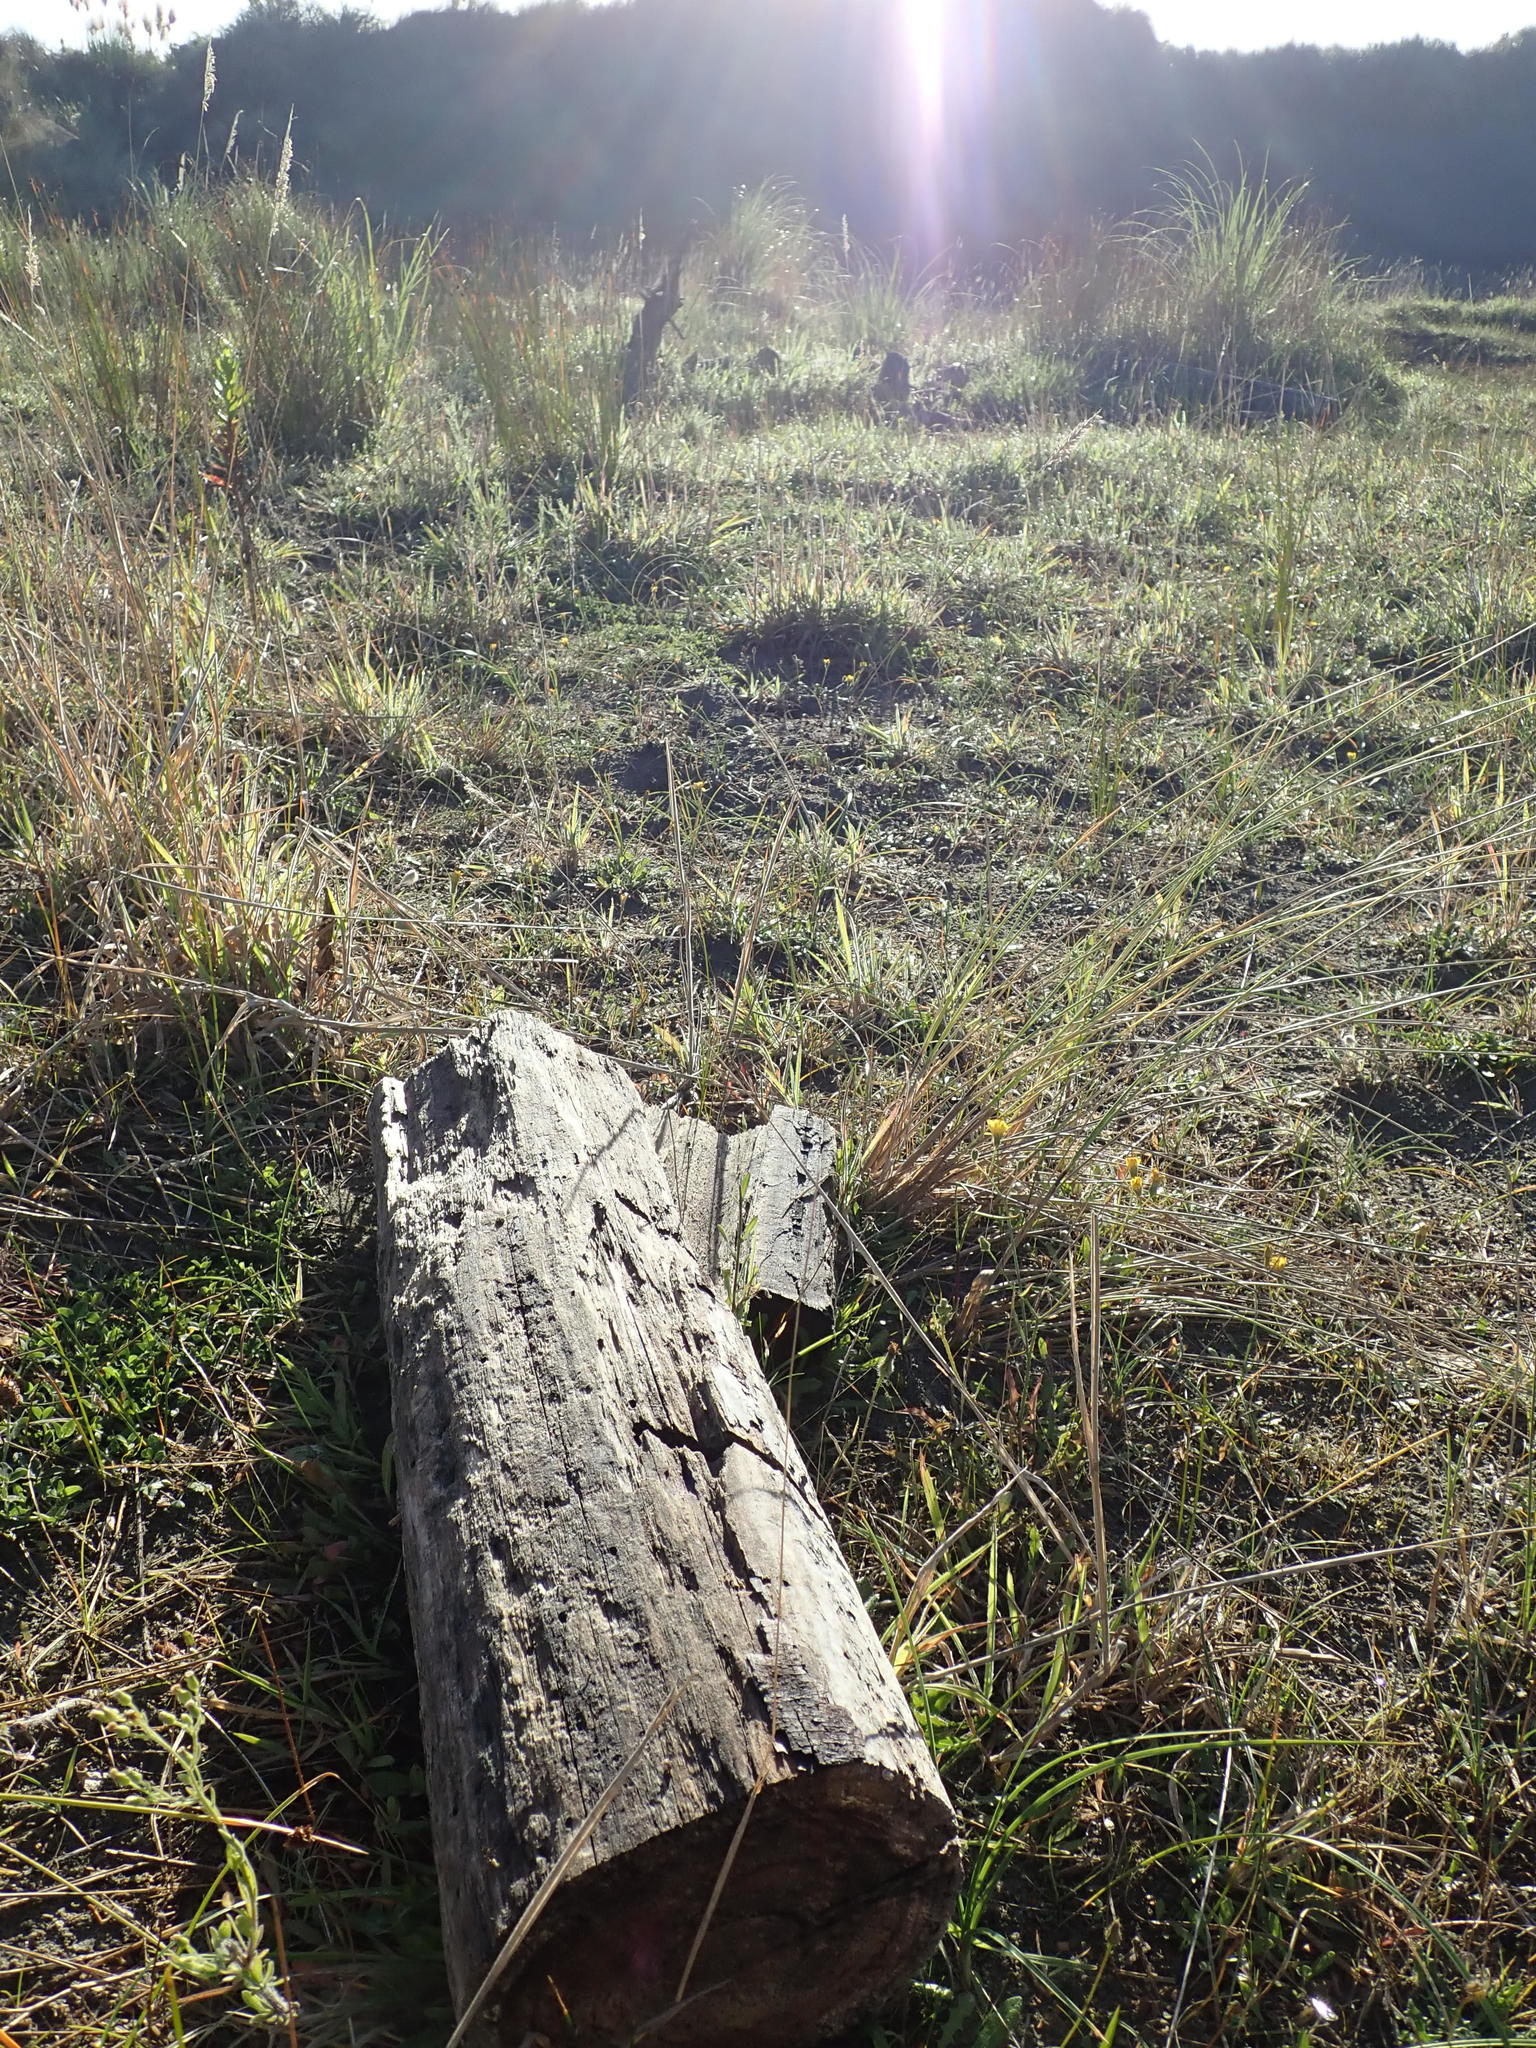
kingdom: Animalia
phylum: Arthropoda
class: Insecta
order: Coleoptera
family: Scarabaeidae
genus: Pericoptus
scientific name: Pericoptus truncatus
